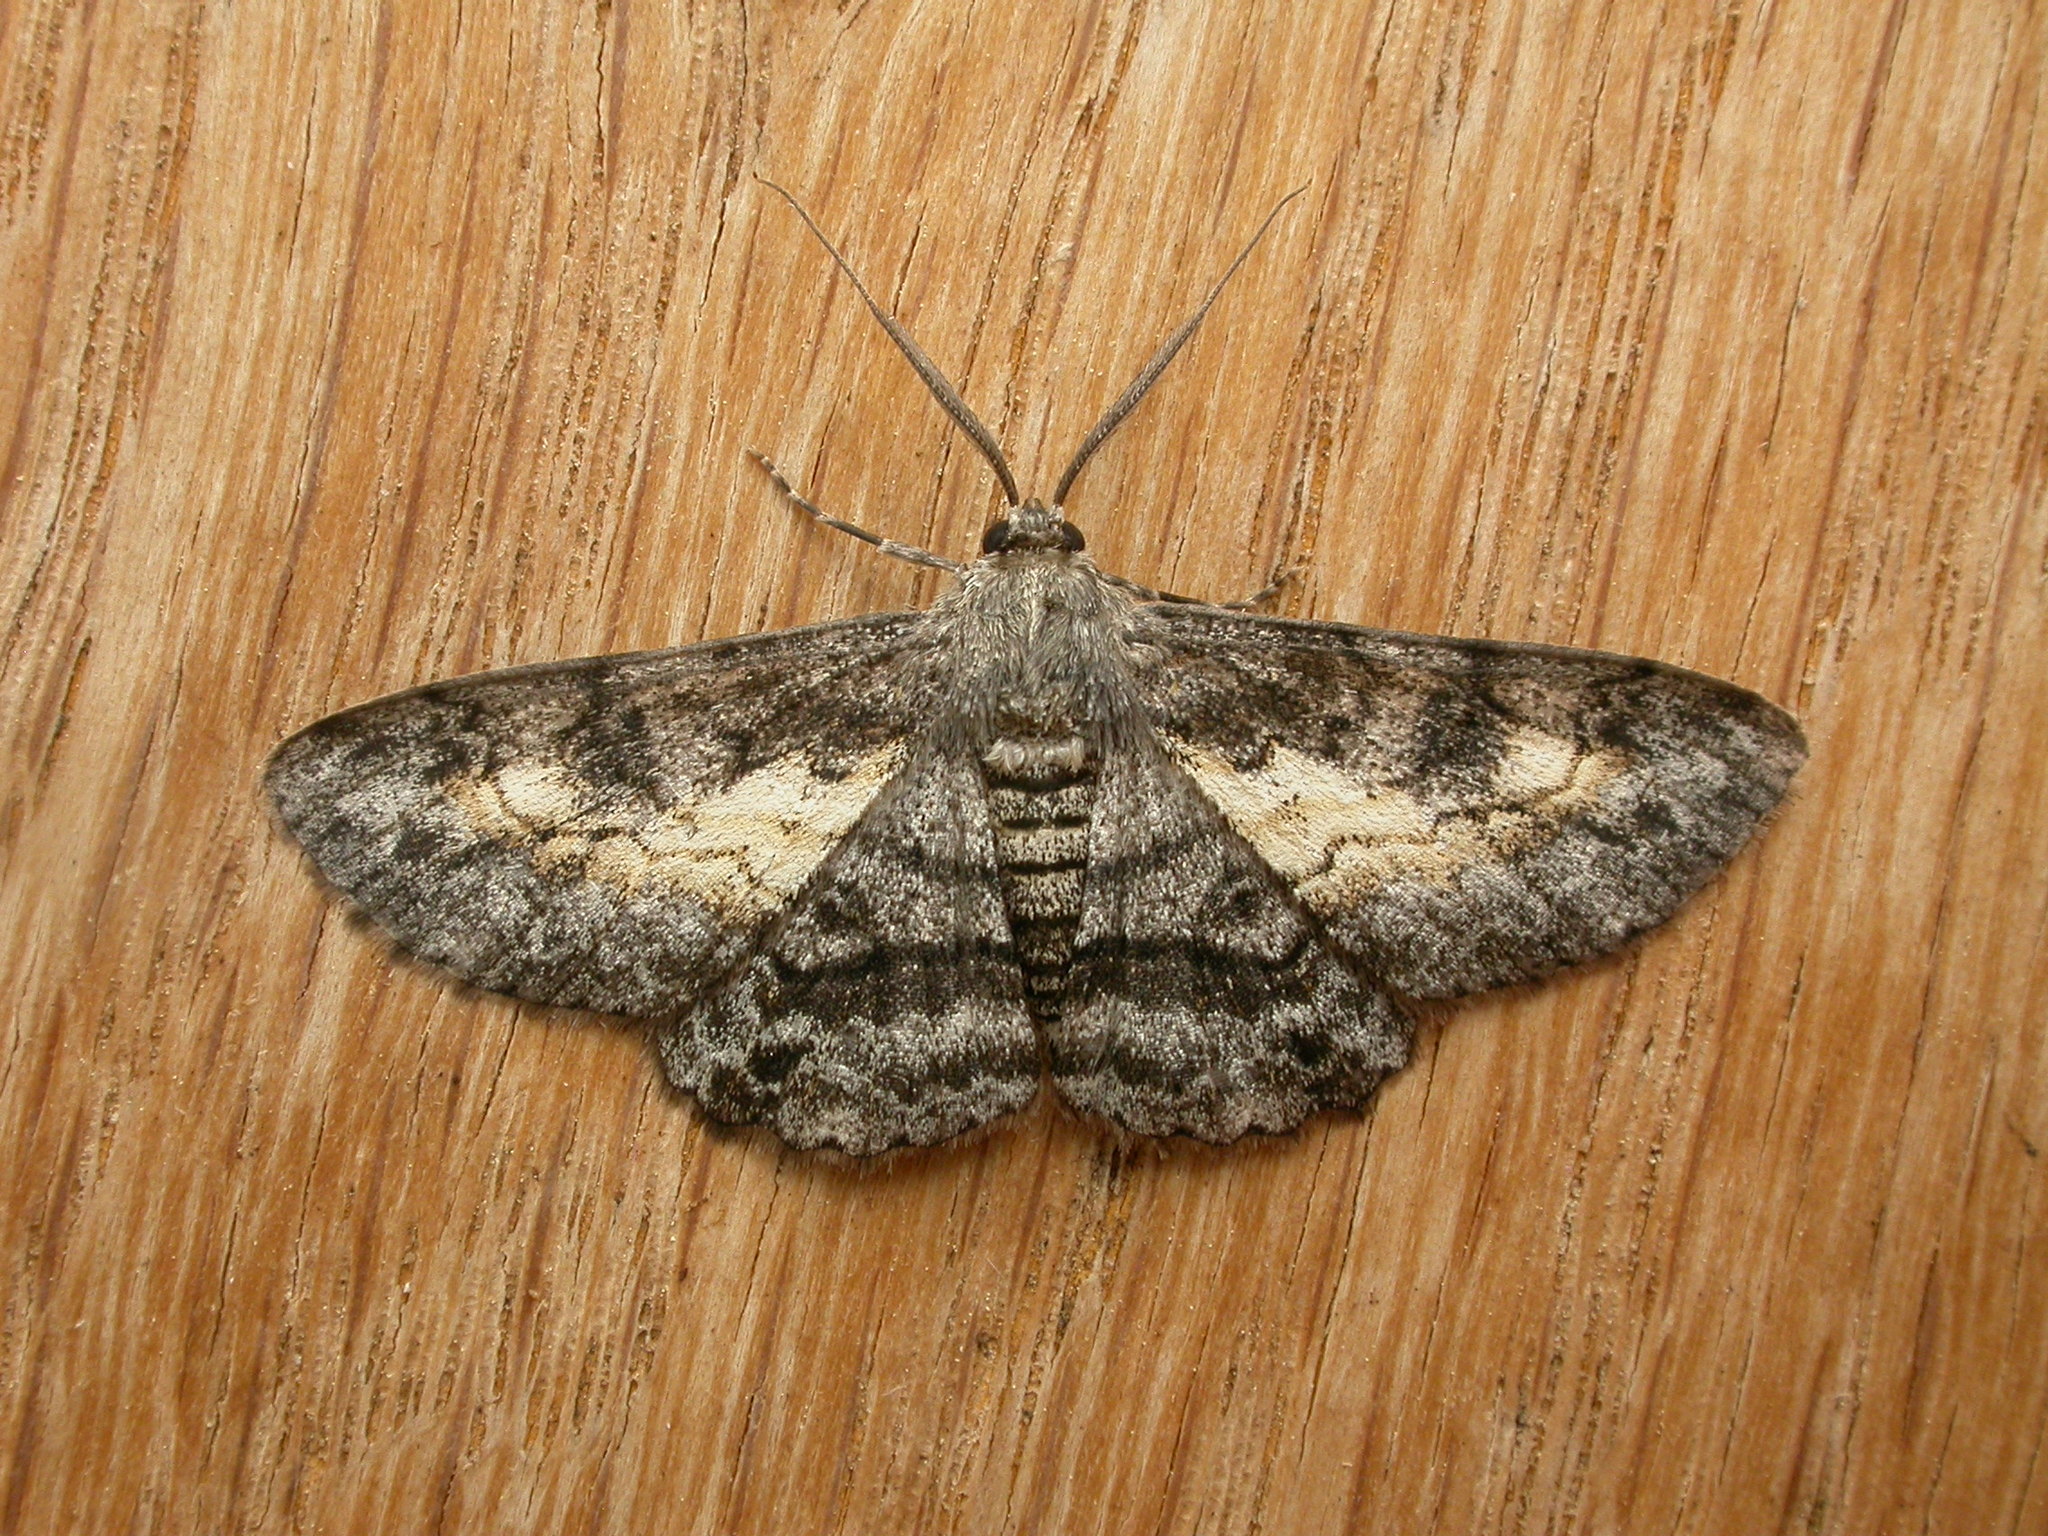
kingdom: Animalia
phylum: Arthropoda
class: Insecta
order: Lepidoptera
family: Geometridae
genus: Cleora
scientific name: Cleora injectaria
